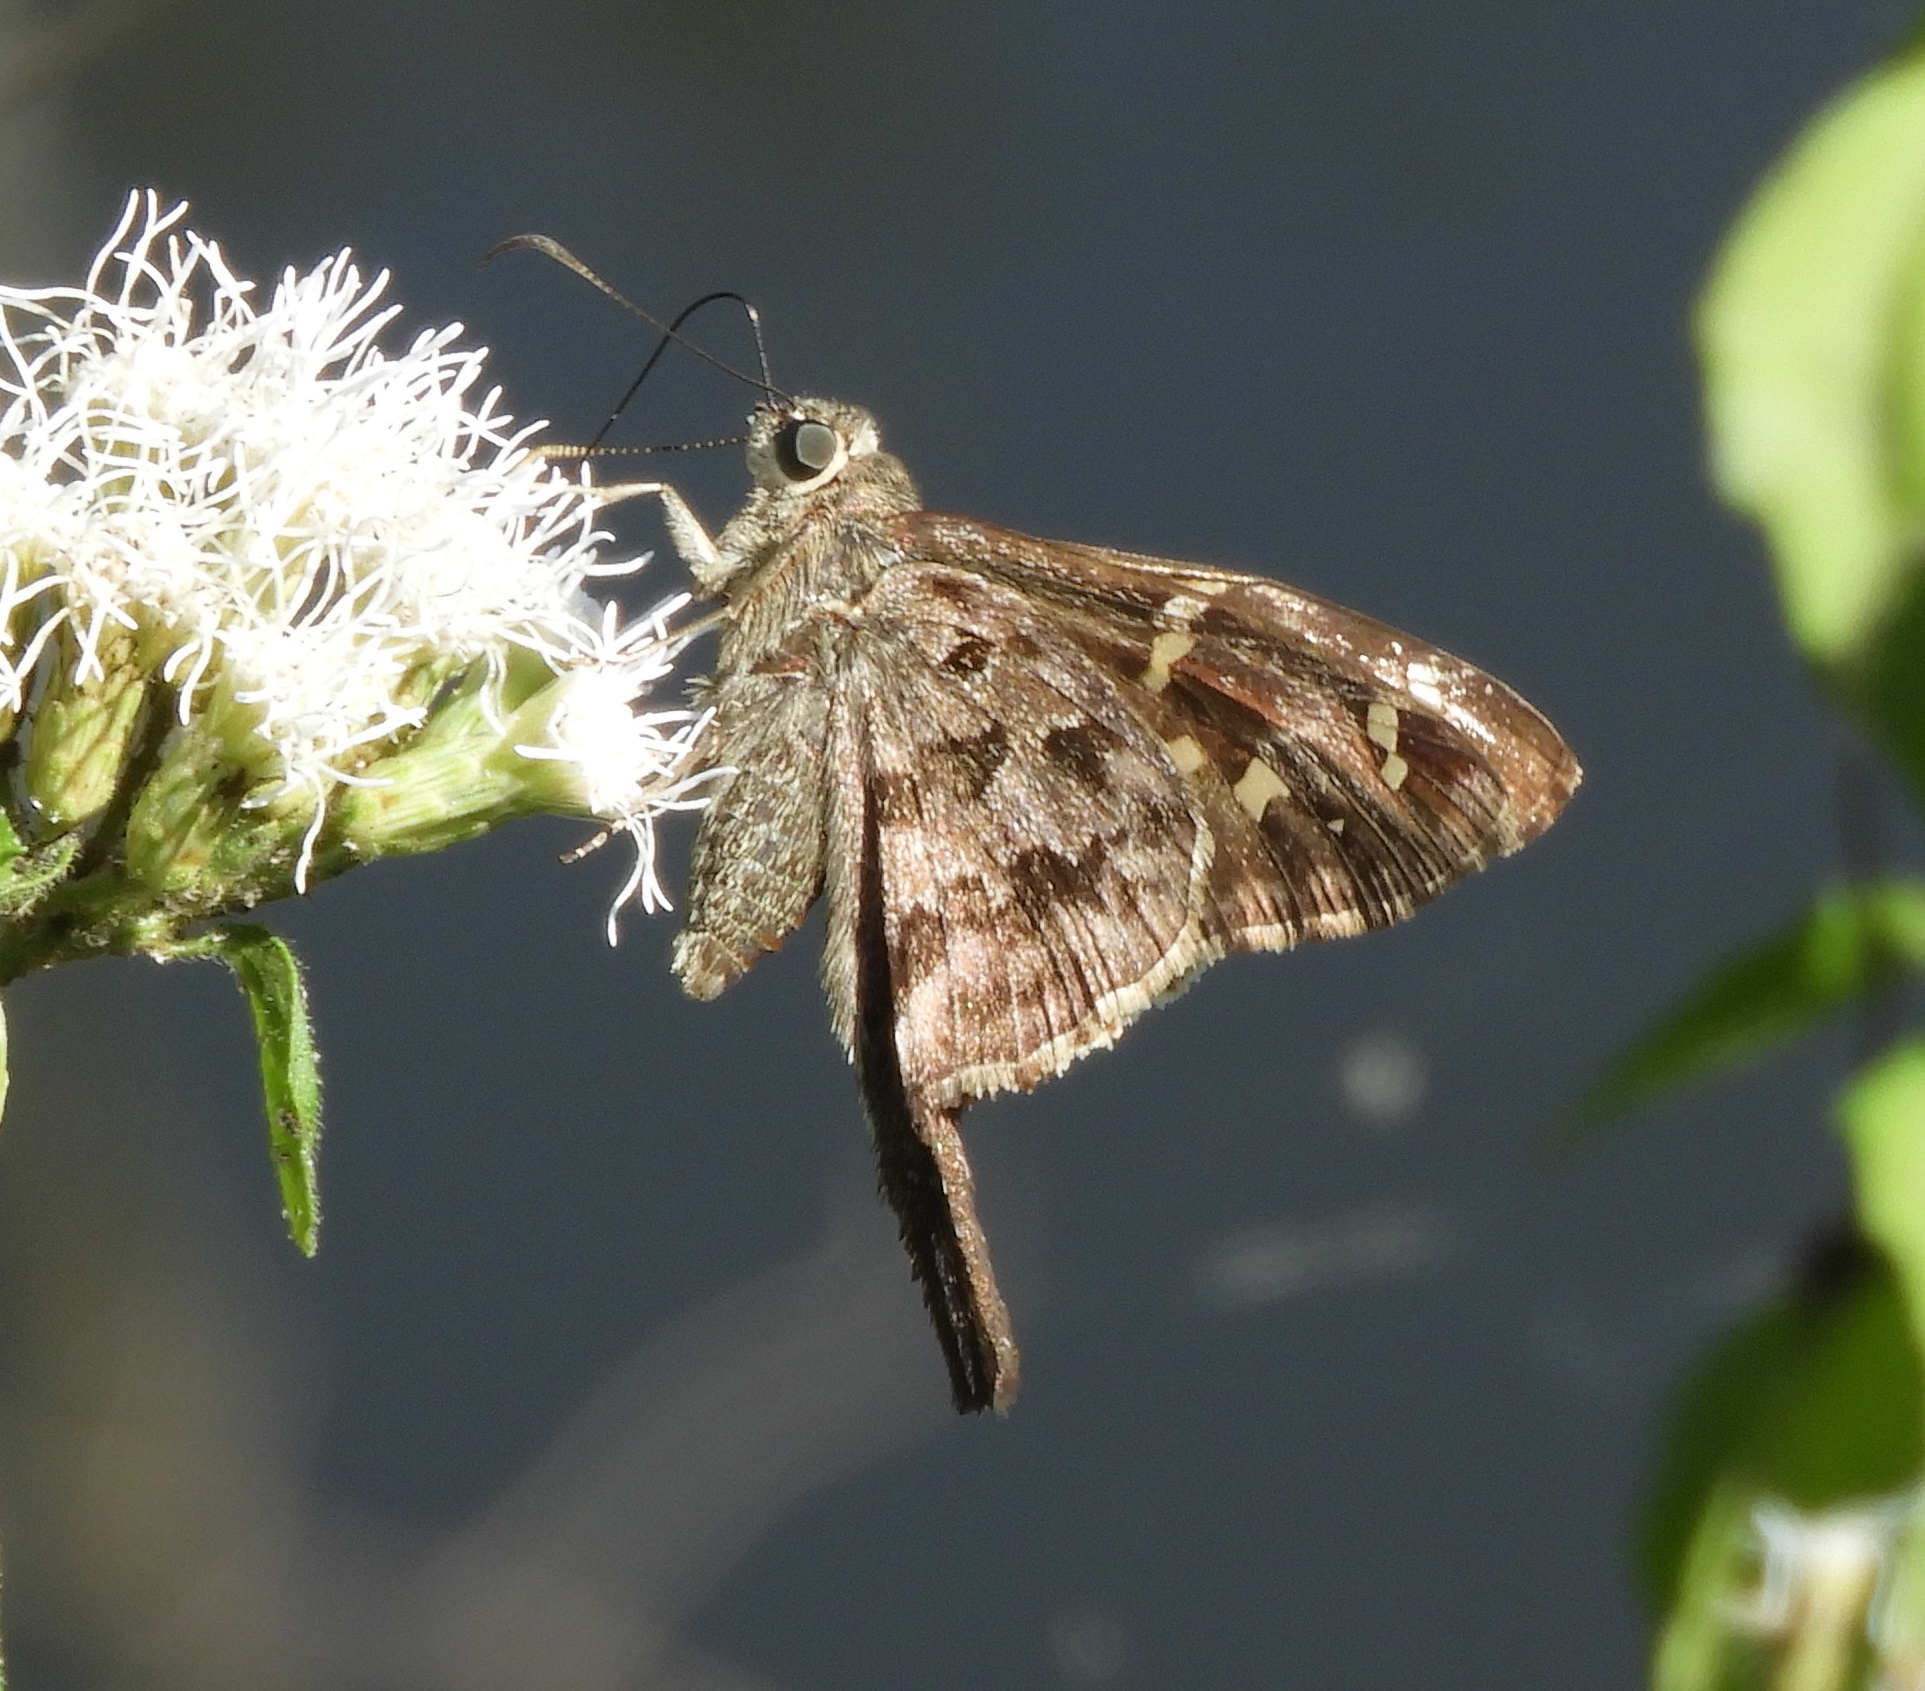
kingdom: Animalia
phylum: Arthropoda
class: Insecta
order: Lepidoptera
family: Hesperiidae
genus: Thorybes
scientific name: Thorybes
